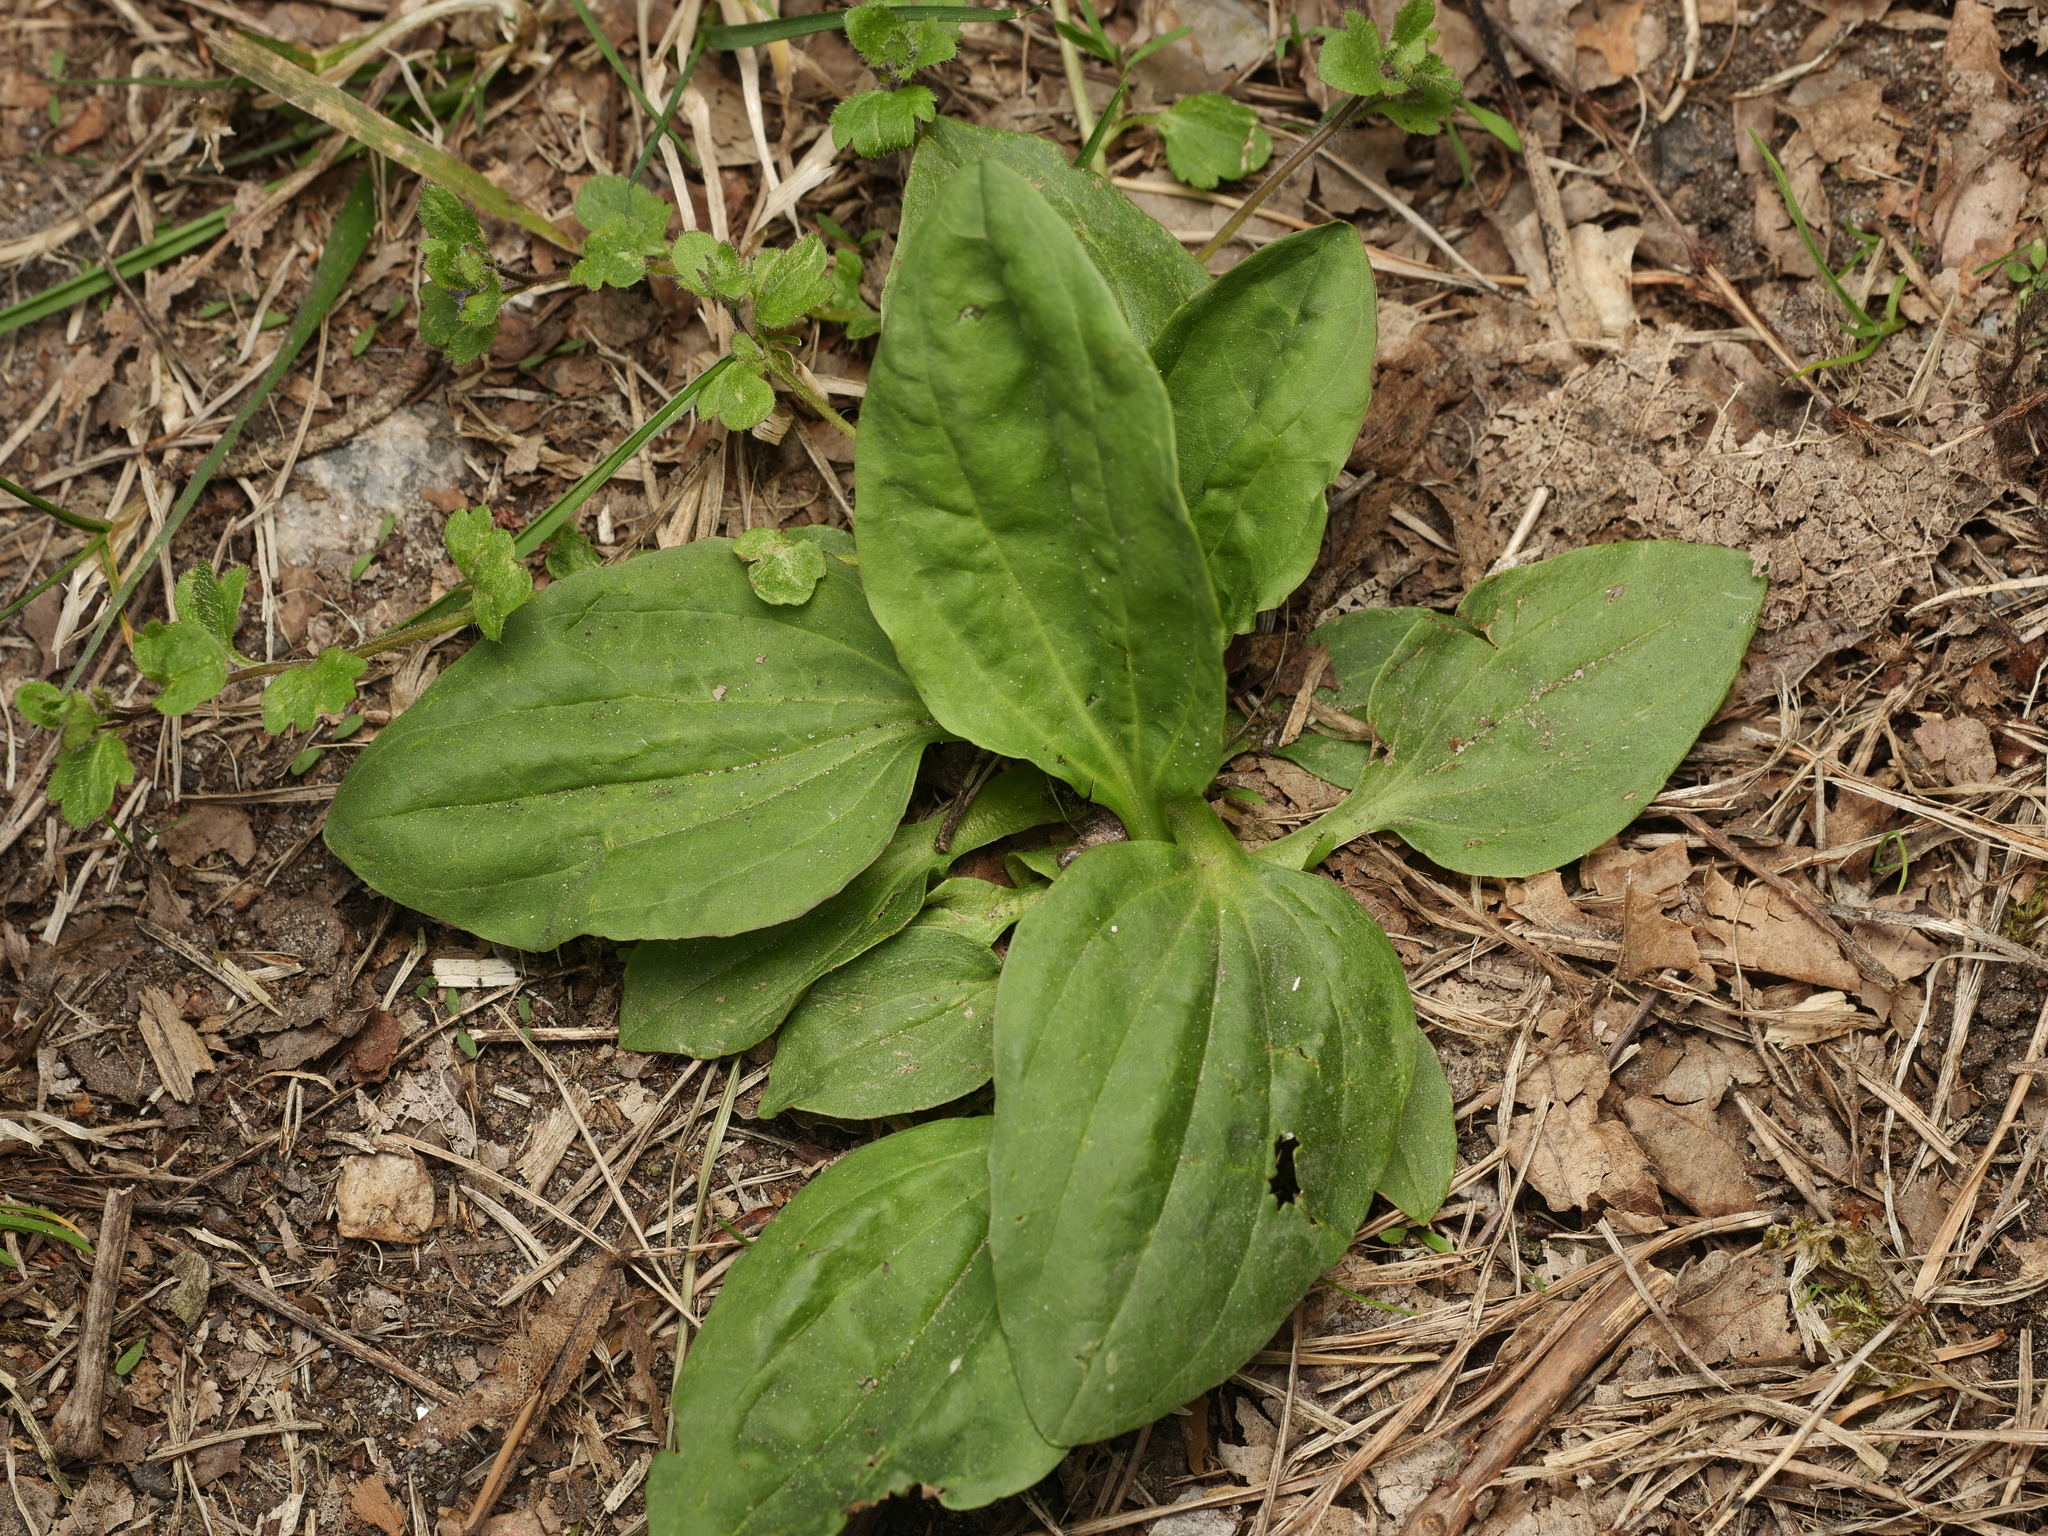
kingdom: Plantae
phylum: Tracheophyta
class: Magnoliopsida
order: Lamiales
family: Plantaginaceae
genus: Plantago
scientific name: Plantago major
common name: Common plantain
